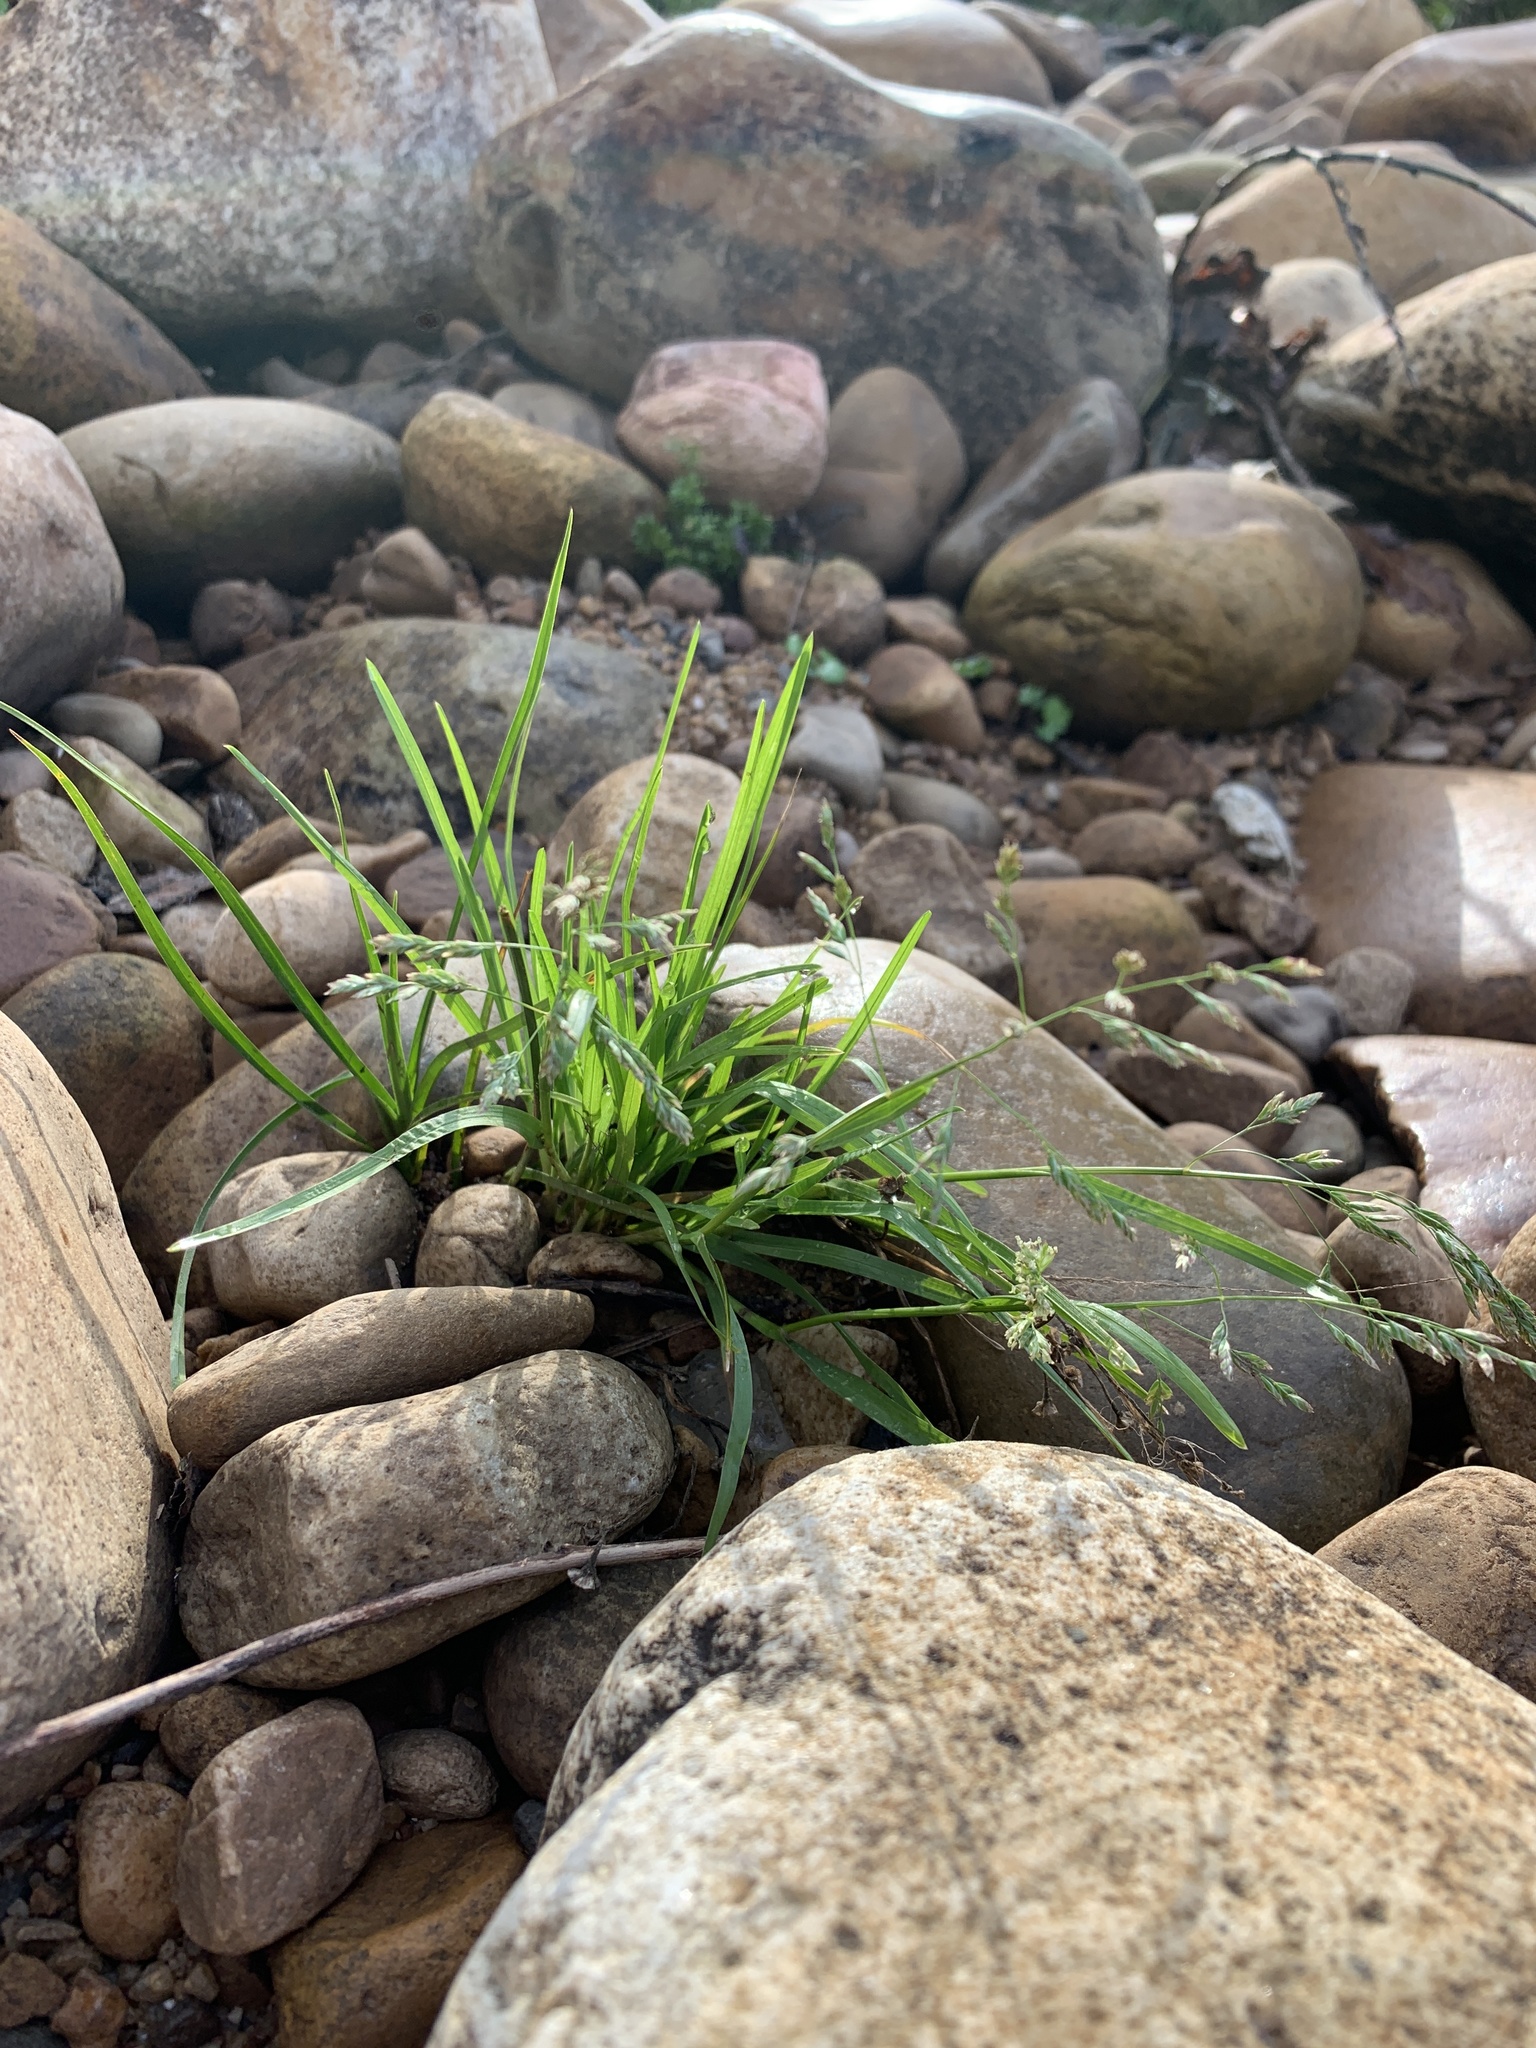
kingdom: Plantae
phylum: Tracheophyta
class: Liliopsida
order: Poales
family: Poaceae
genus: Poa
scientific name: Poa annua
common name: Annual bluegrass
